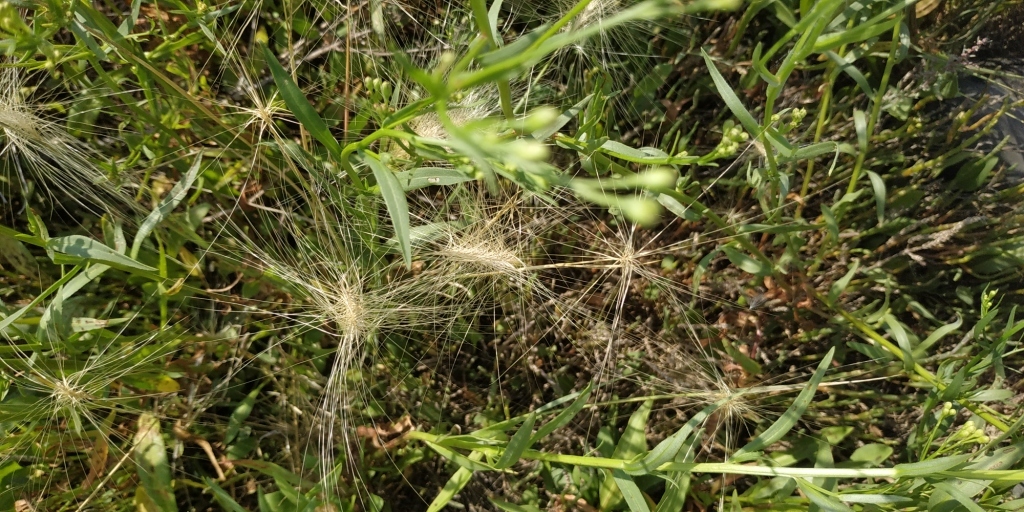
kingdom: Plantae
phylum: Tracheophyta
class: Liliopsida
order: Poales
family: Poaceae
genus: Hordeum
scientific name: Hordeum jubatum
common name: Foxtail barley
